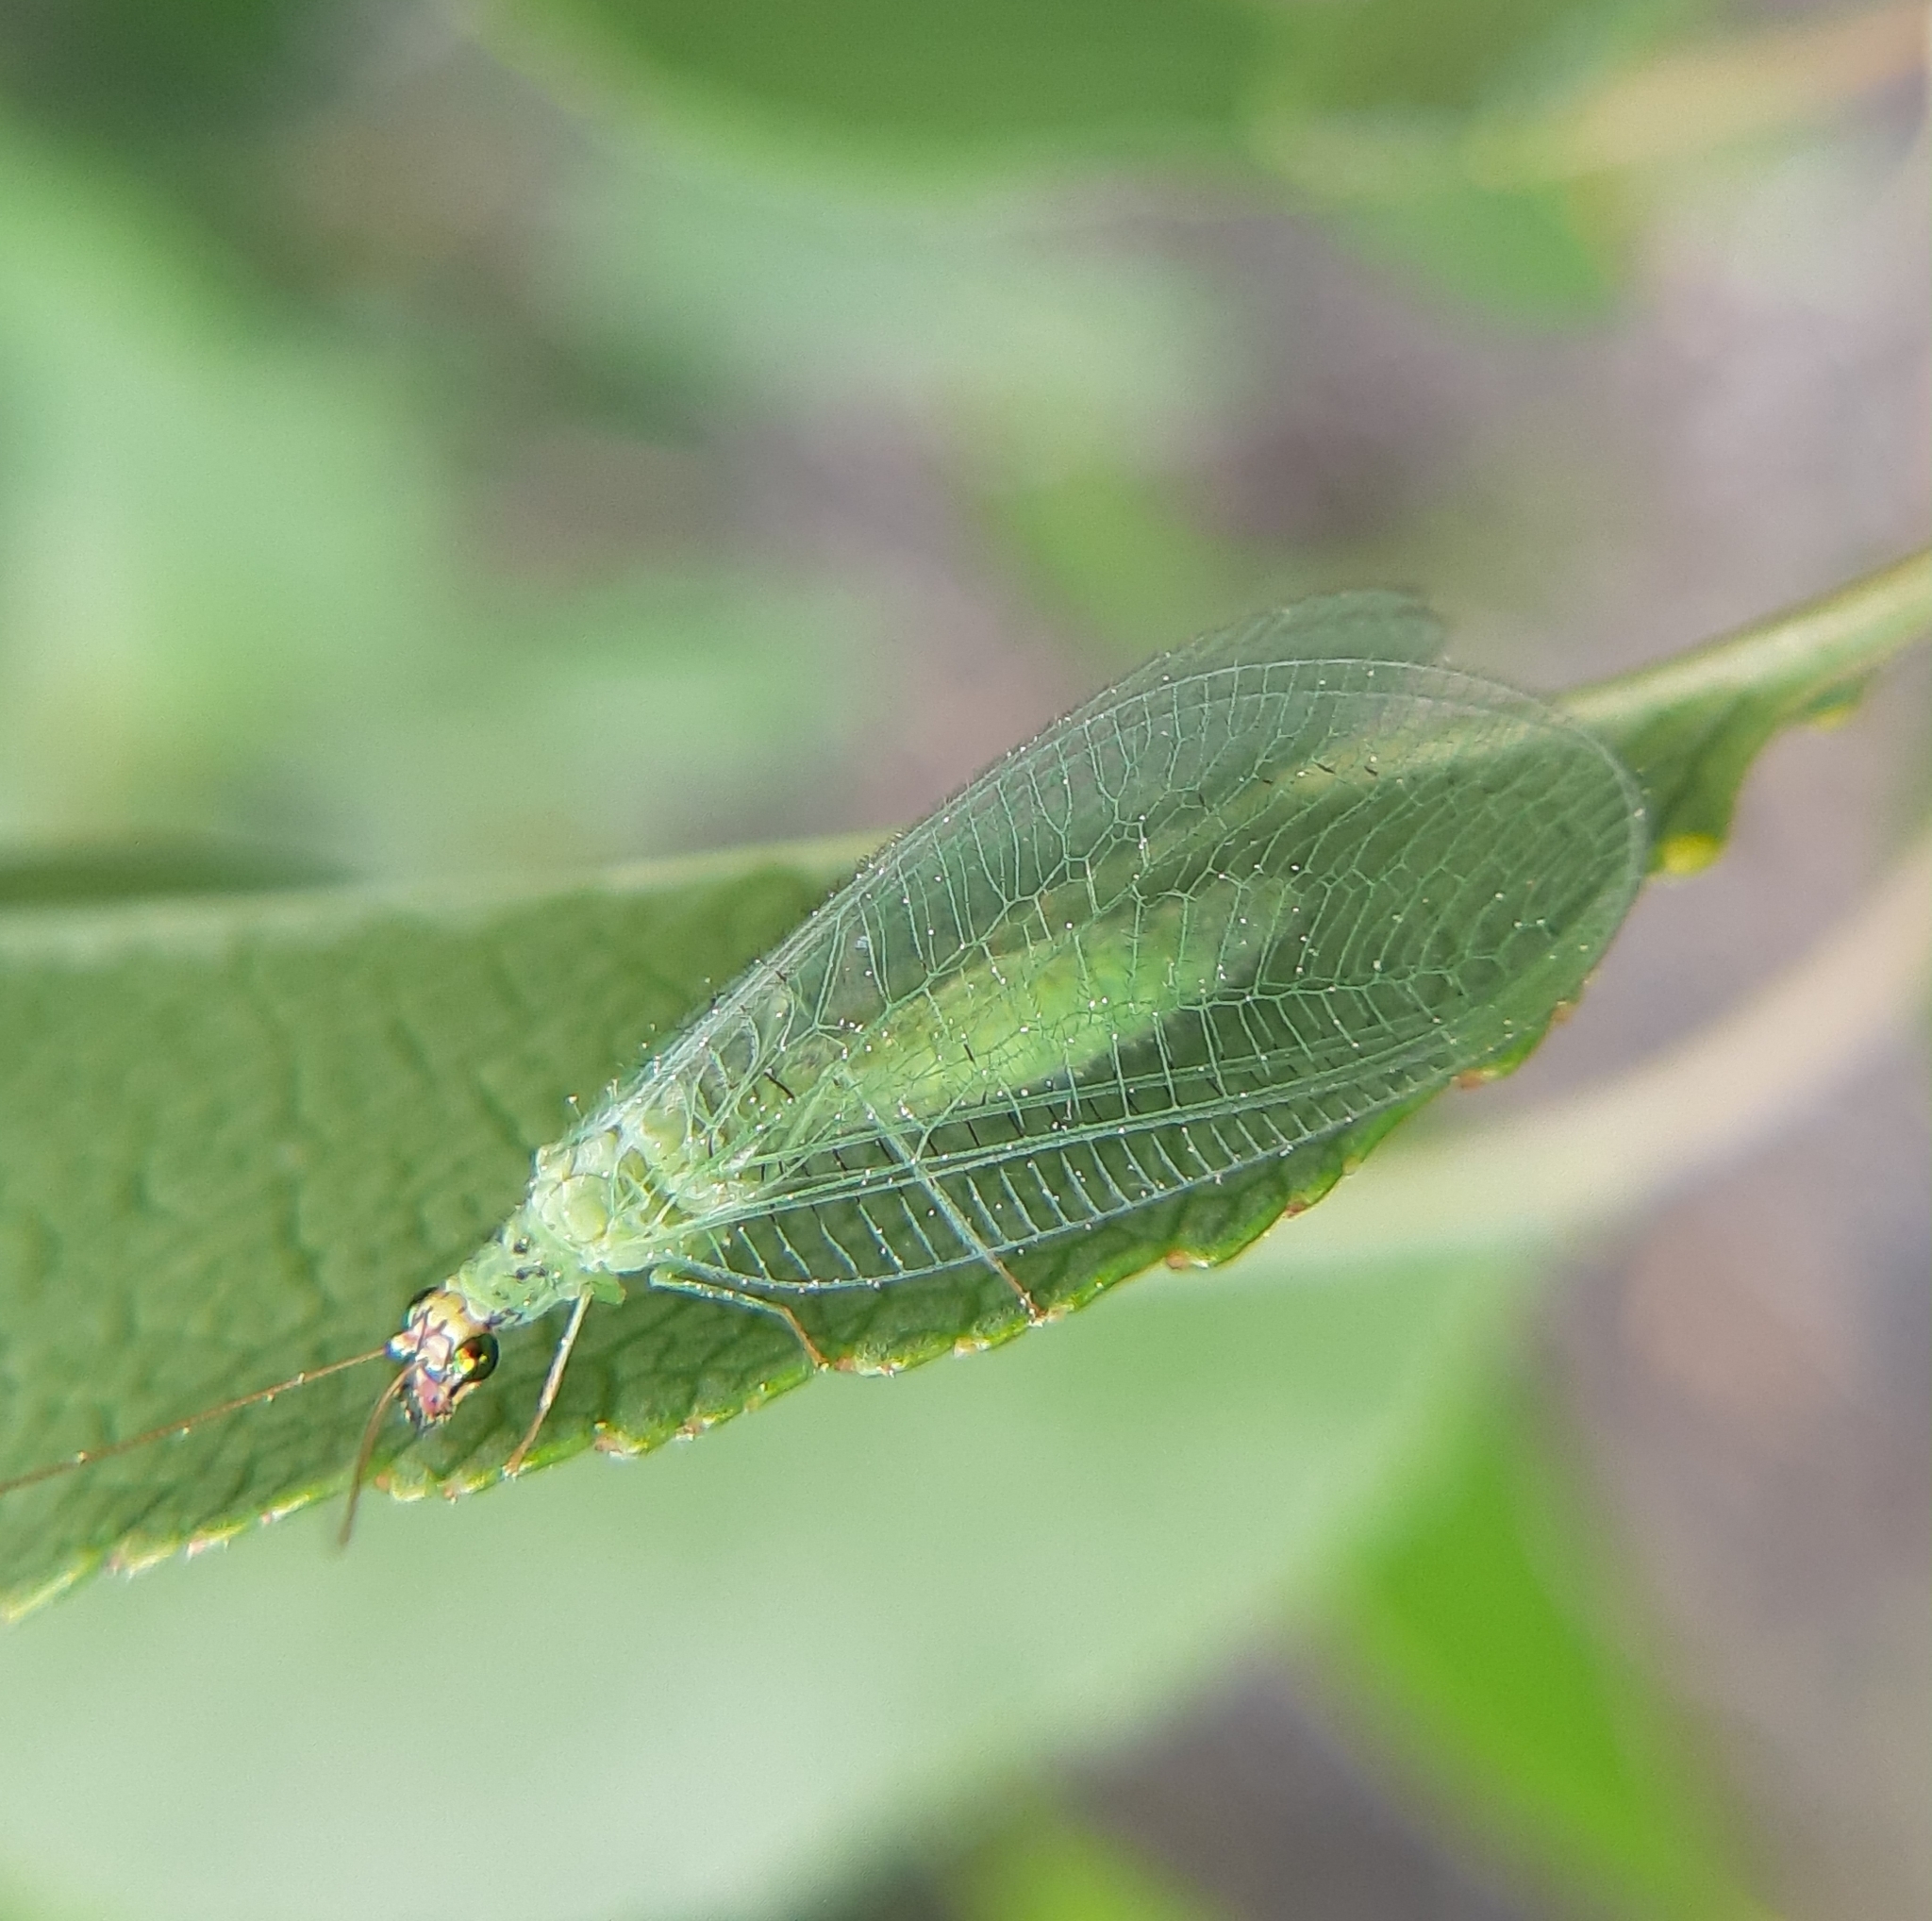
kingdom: Animalia
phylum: Arthropoda
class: Insecta
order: Neuroptera
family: Chrysopidae
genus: Chrysopa
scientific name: Chrysopa oculata
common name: Golden-eyed lacewing
